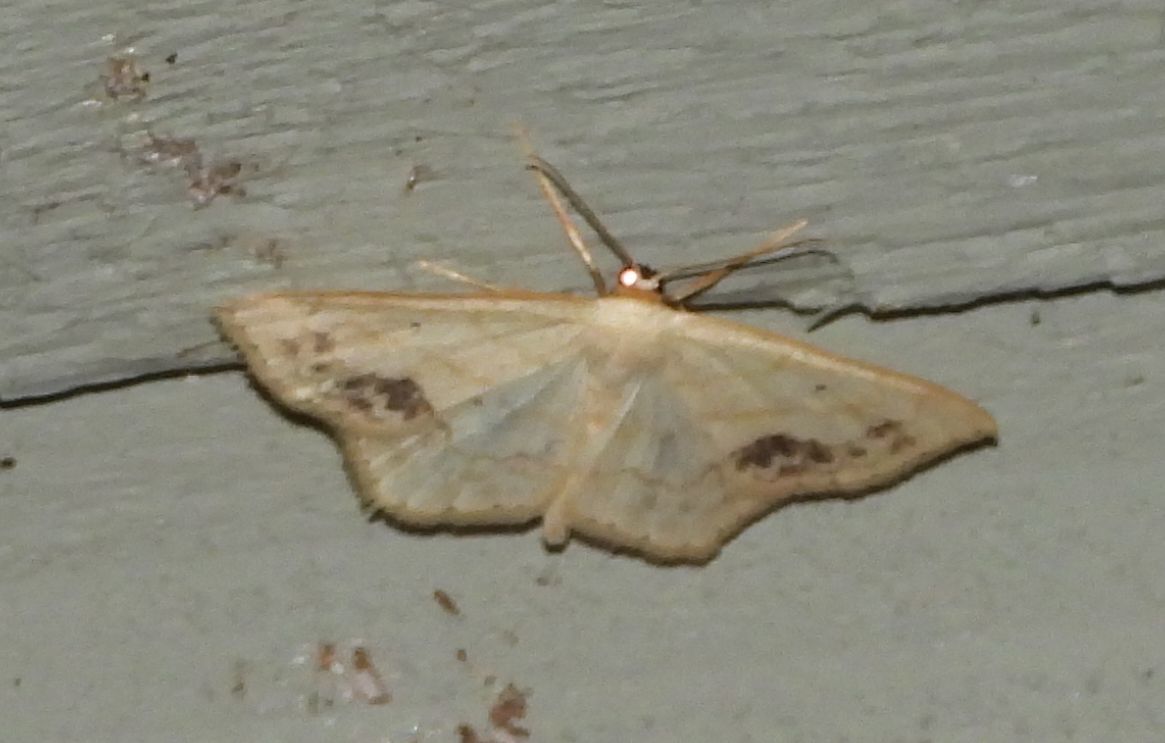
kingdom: Animalia
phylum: Arthropoda
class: Insecta
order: Lepidoptera
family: Geometridae
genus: Scopula
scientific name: Scopula limboundata
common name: Large lace border
